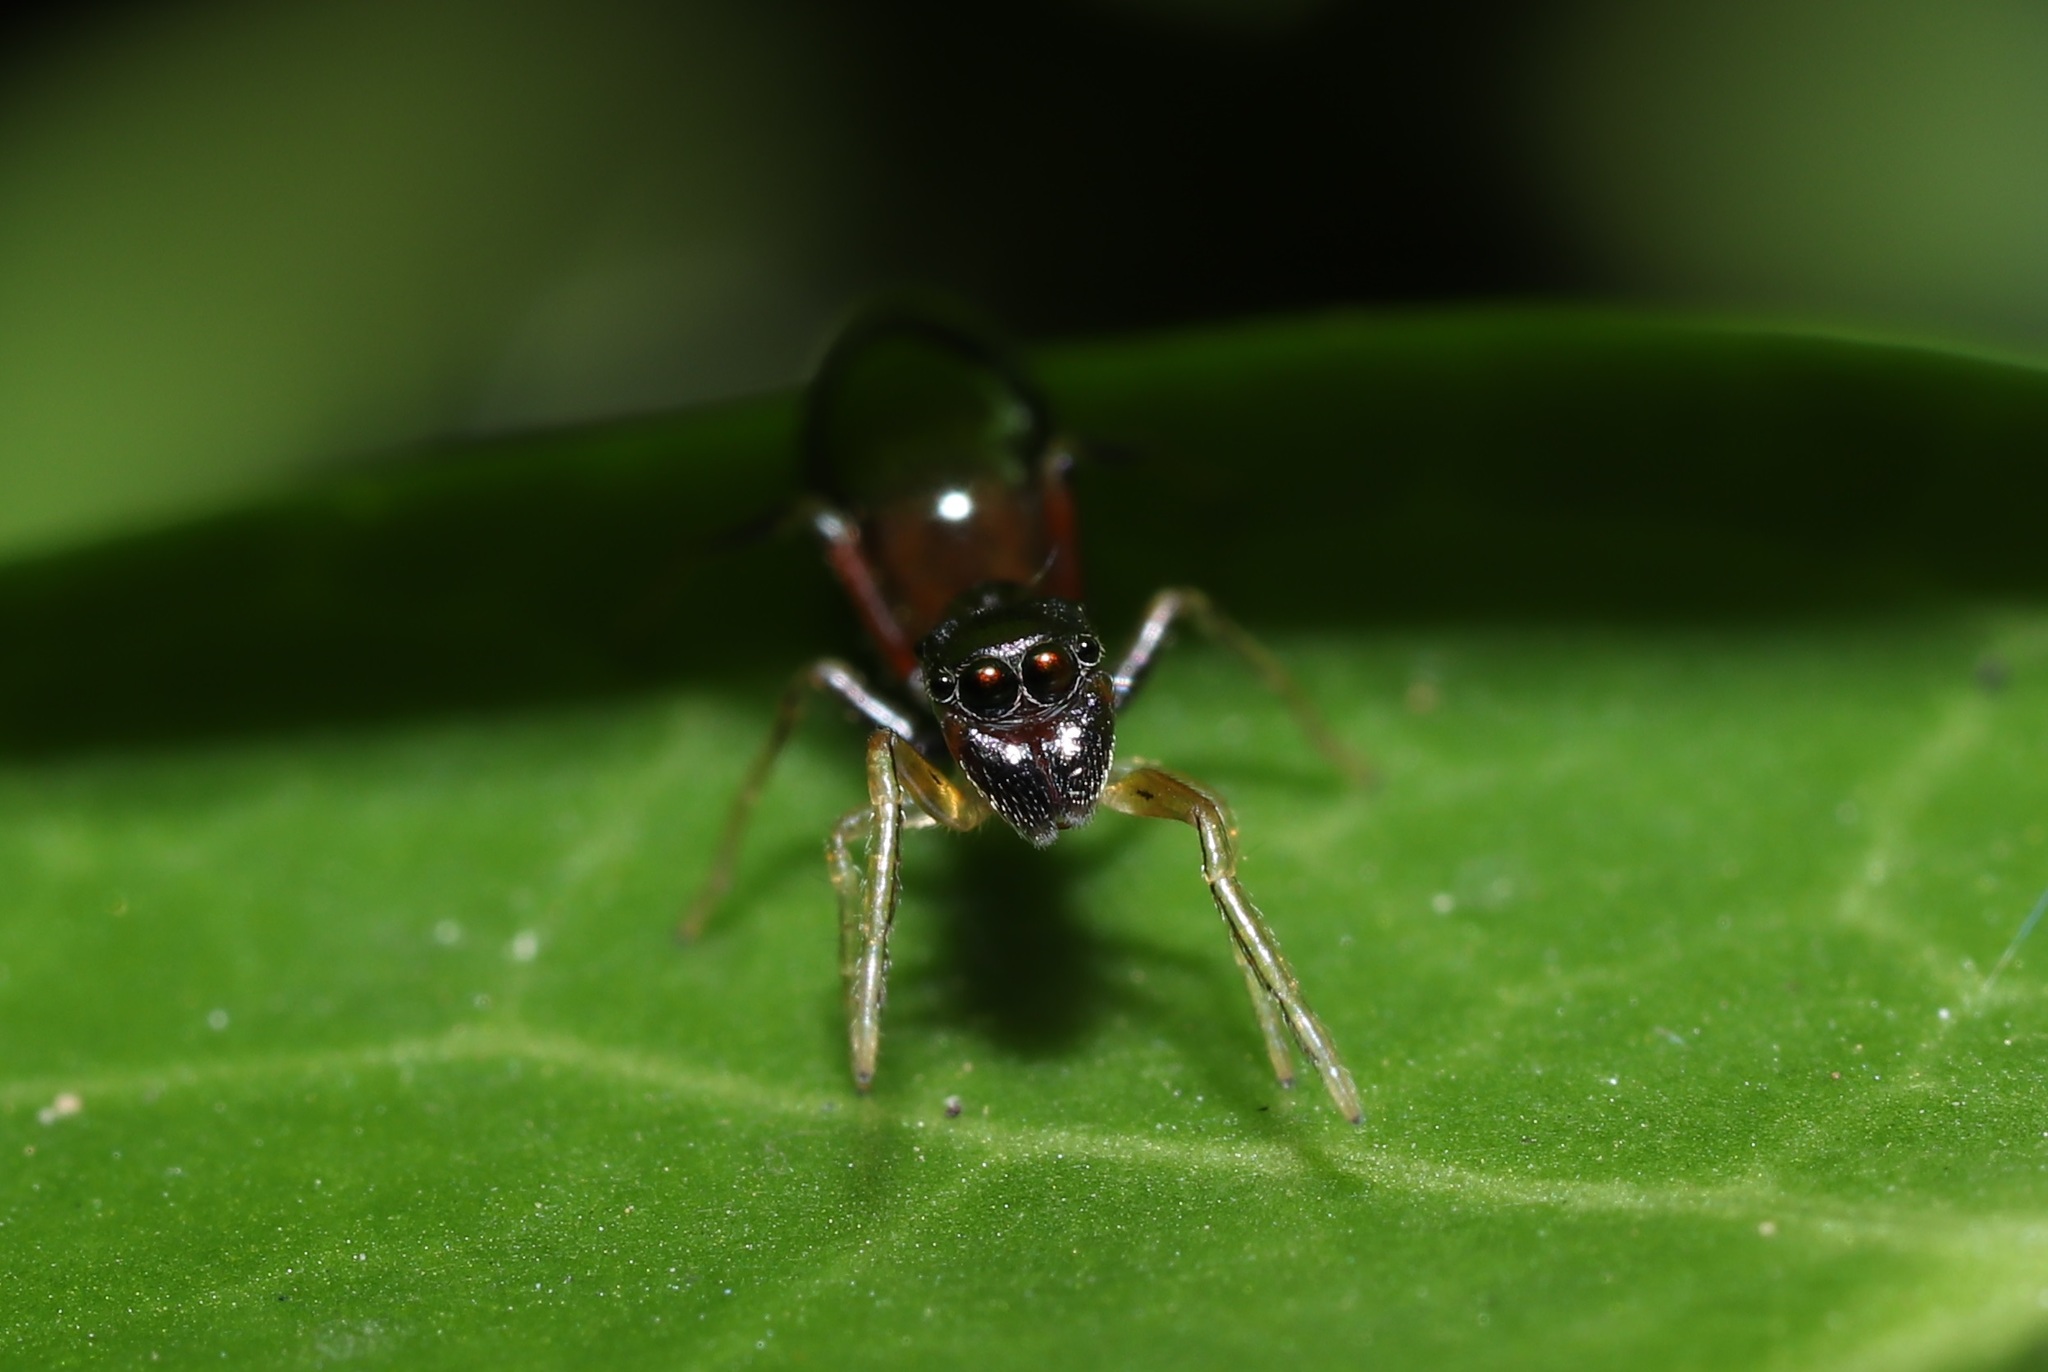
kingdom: Animalia
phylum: Arthropoda
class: Arachnida
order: Araneae
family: Salticidae
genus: Myrmarachne
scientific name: Myrmarachne japonica
